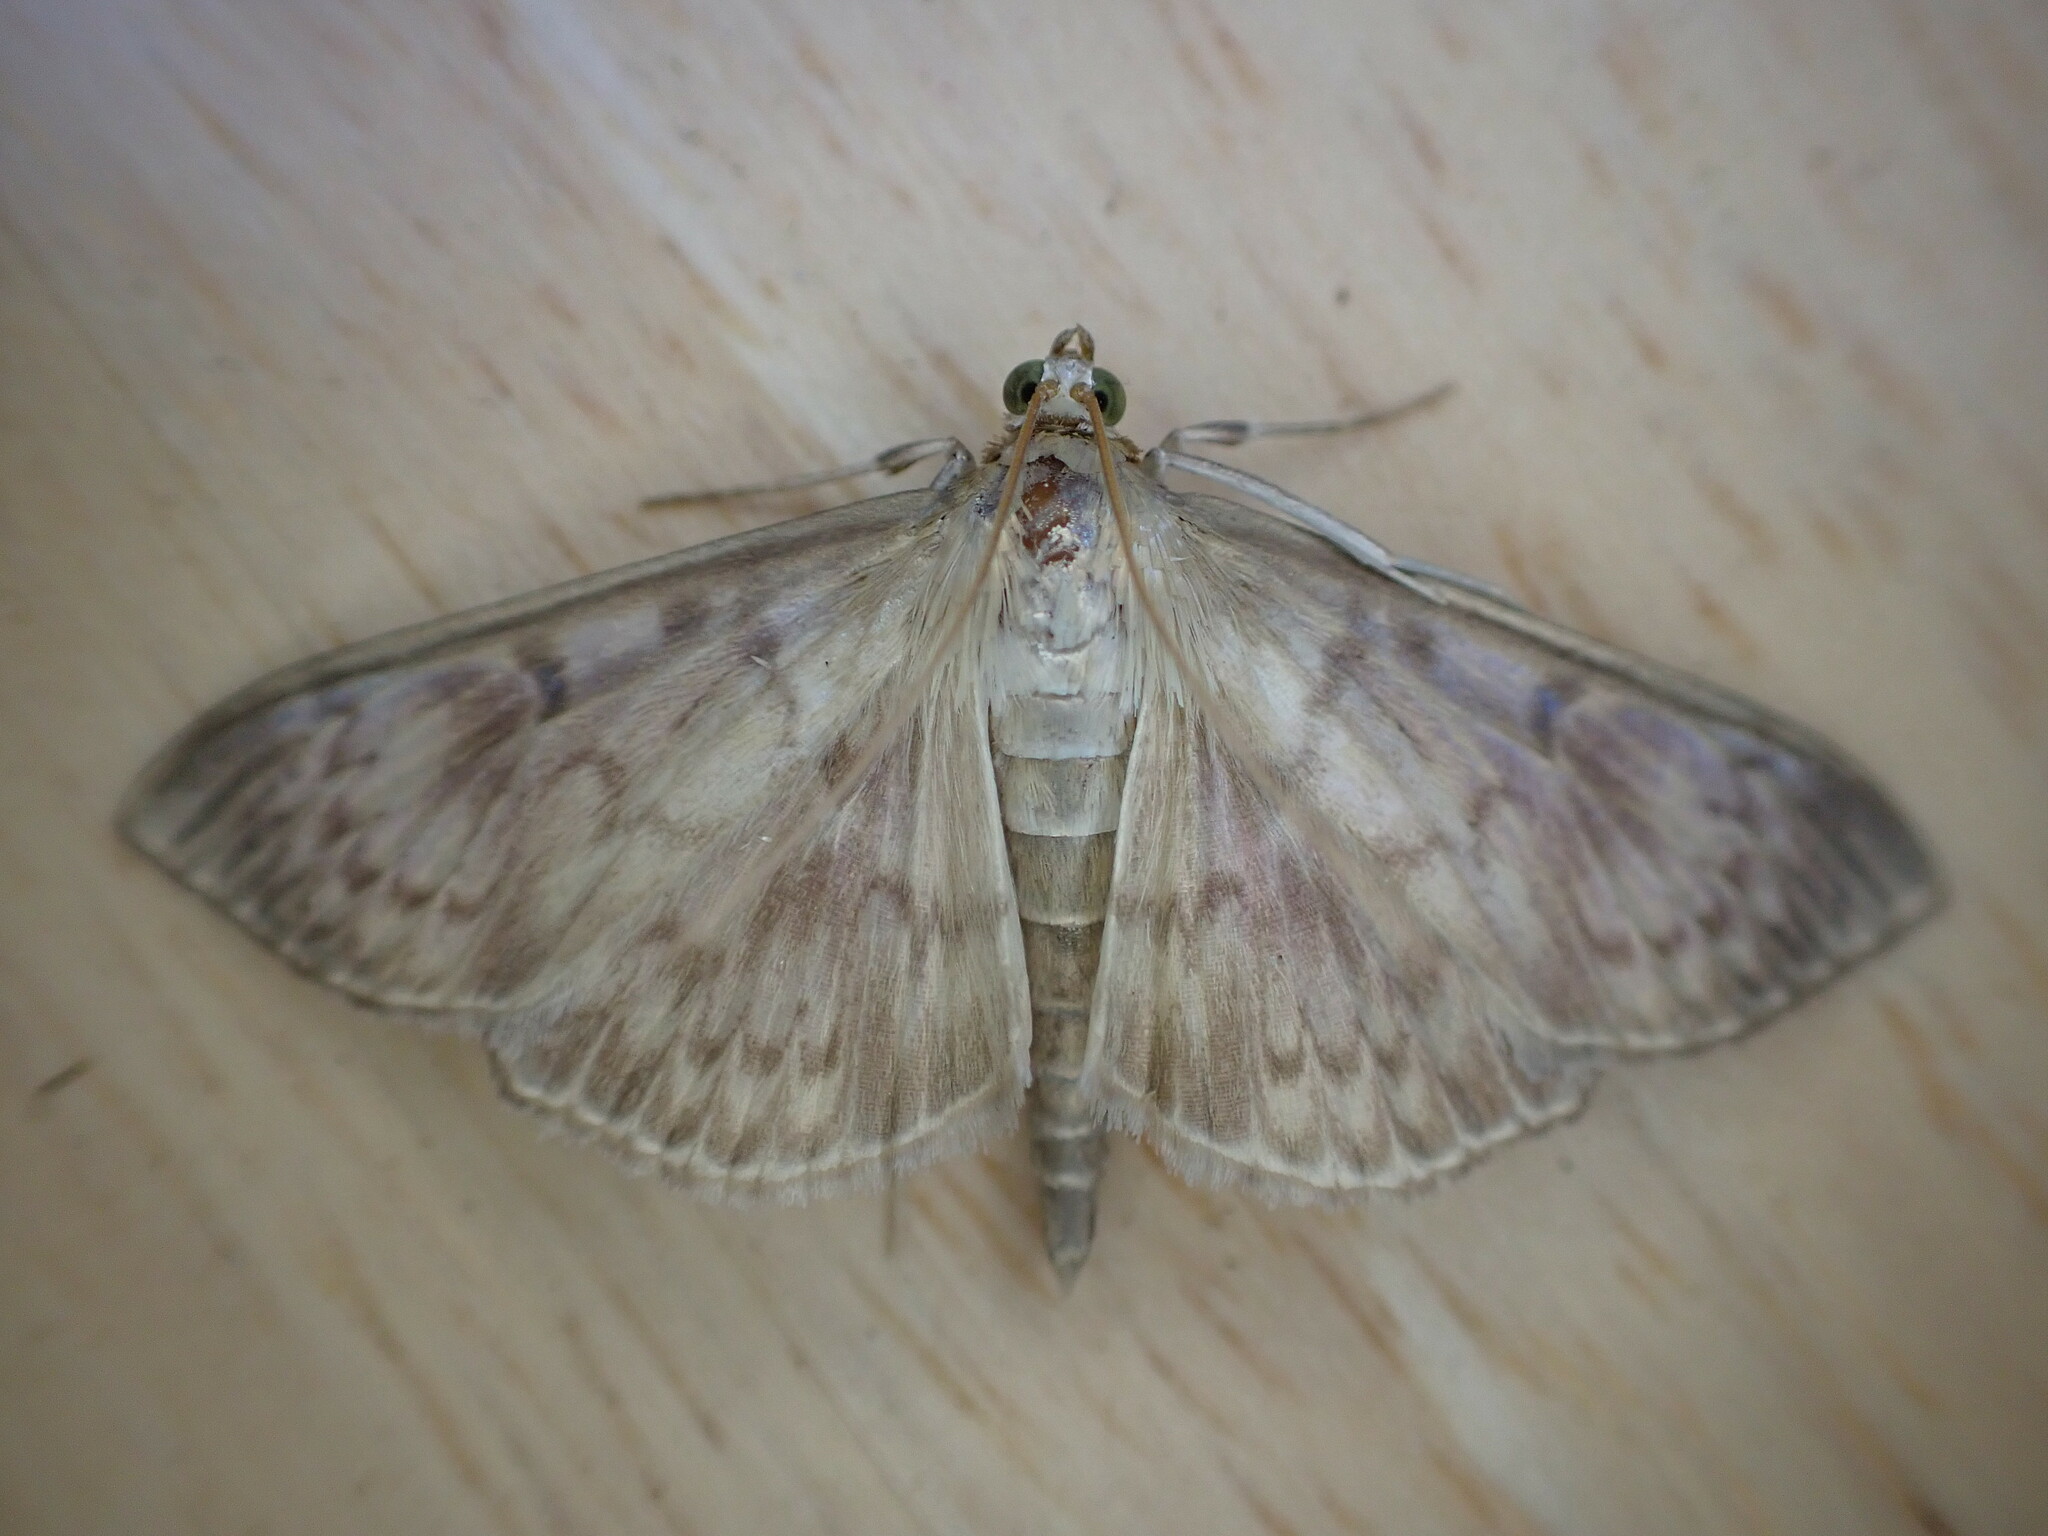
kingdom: Animalia
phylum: Arthropoda
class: Insecta
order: Lepidoptera
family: Crambidae
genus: Patania
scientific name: Patania ruralis
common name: Mother of pearl
